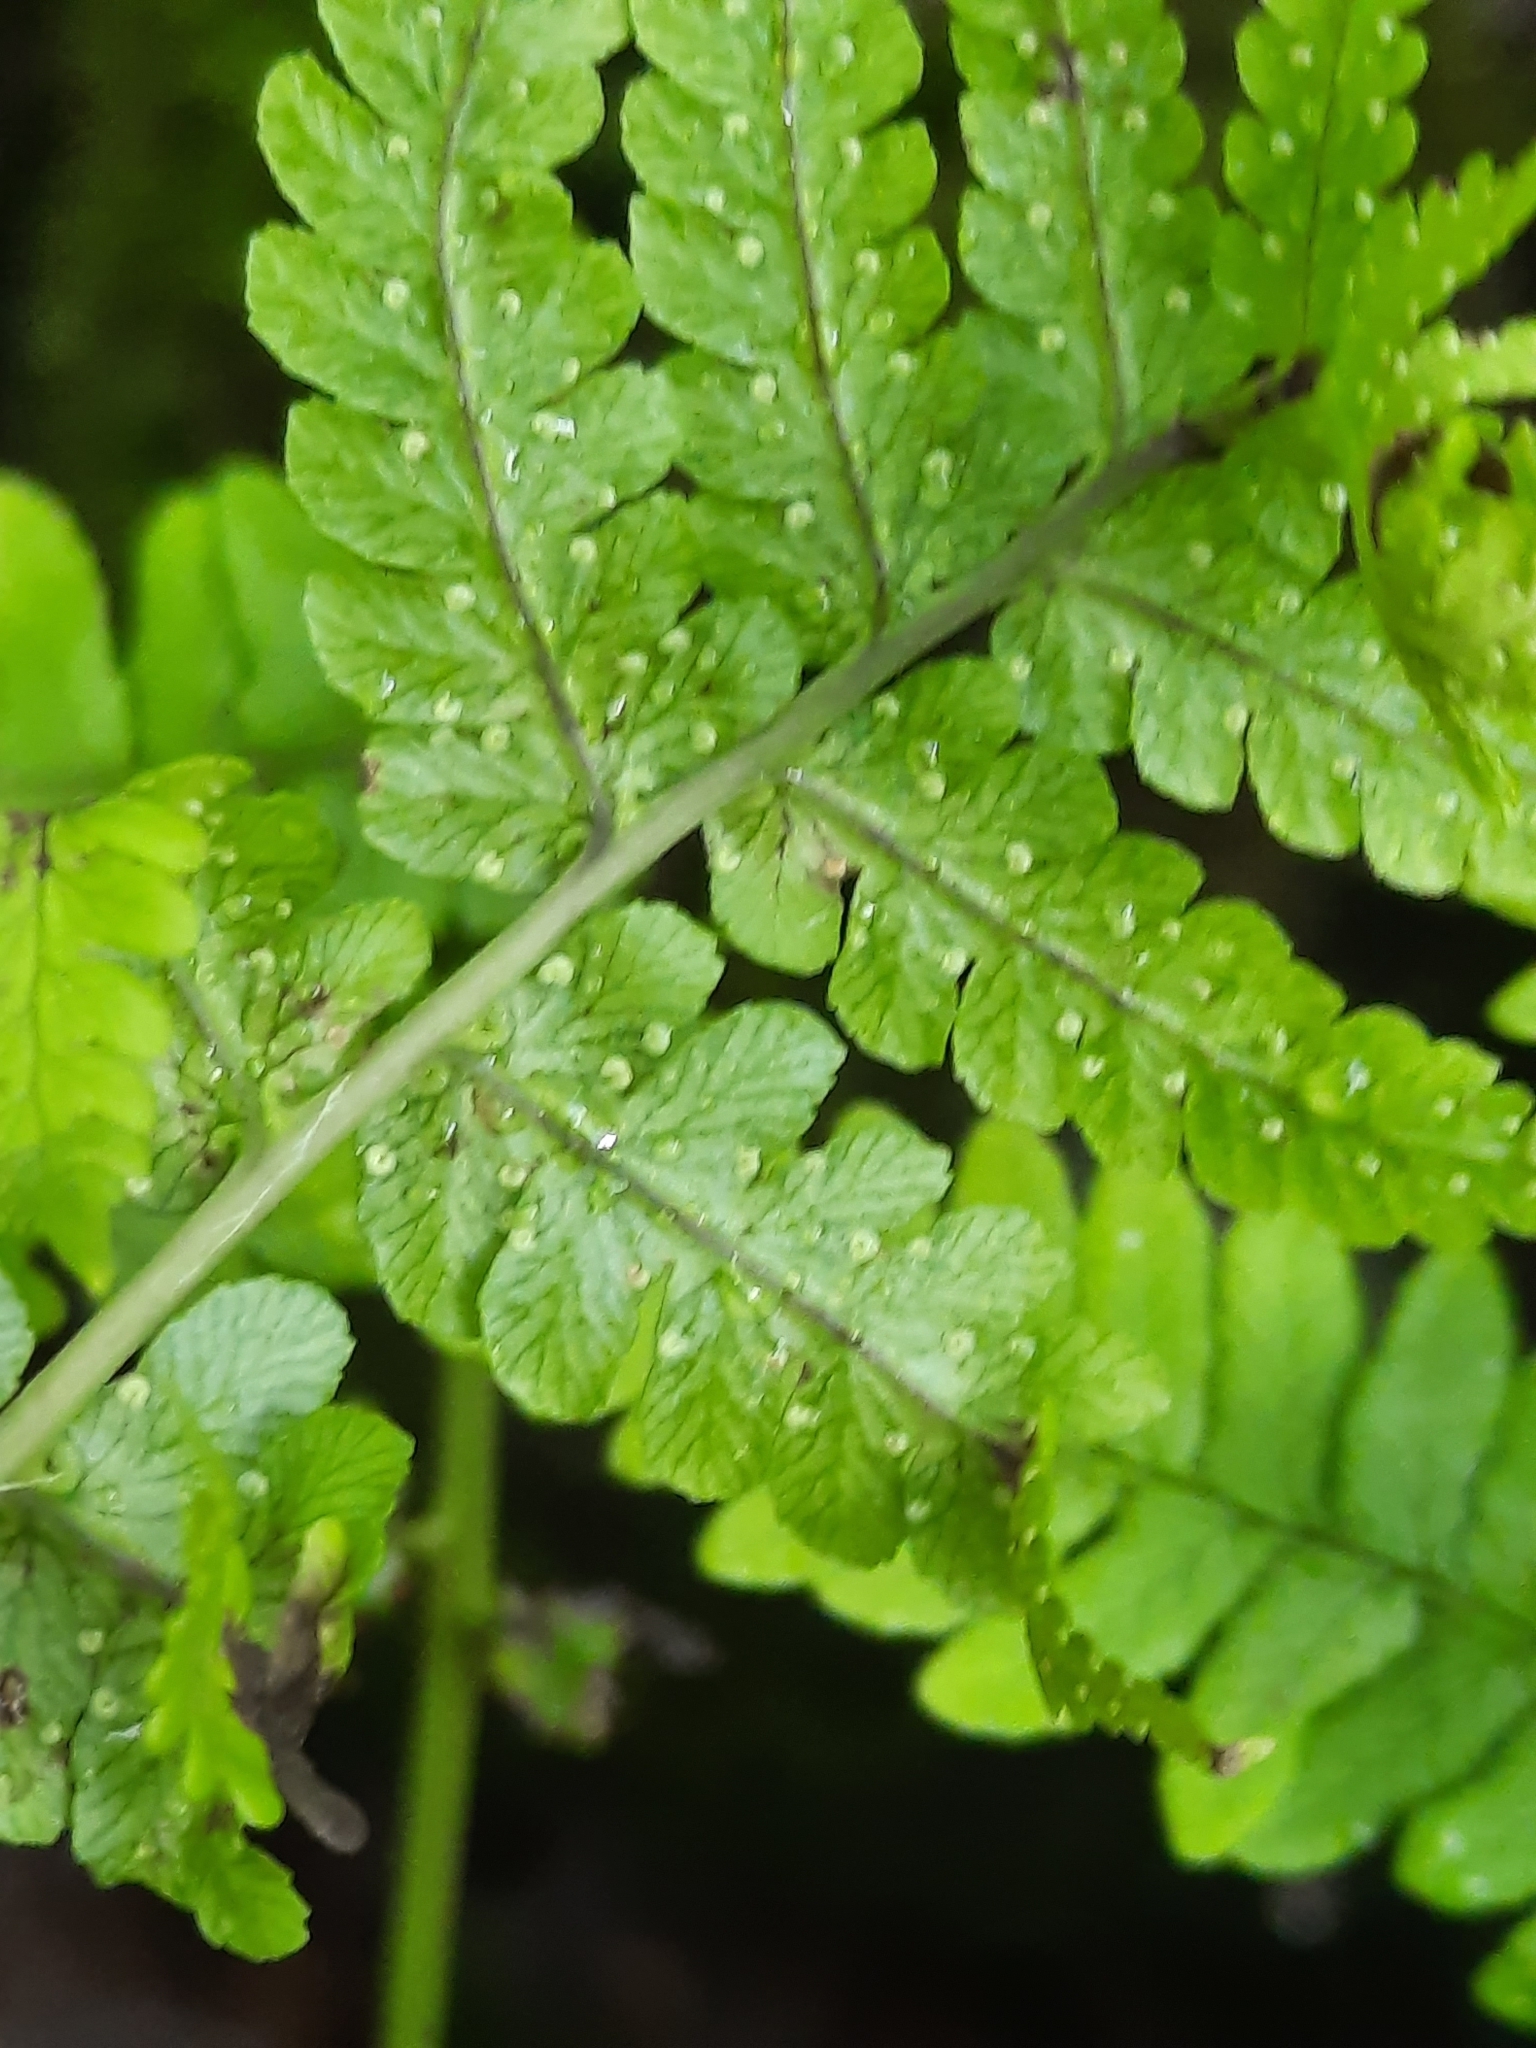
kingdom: Plantae
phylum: Tracheophyta
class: Polypodiopsida
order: Polypodiales
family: Dryopteridaceae
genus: Dryopteris
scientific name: Dryopteris marginalis
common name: Marginal wood fern
